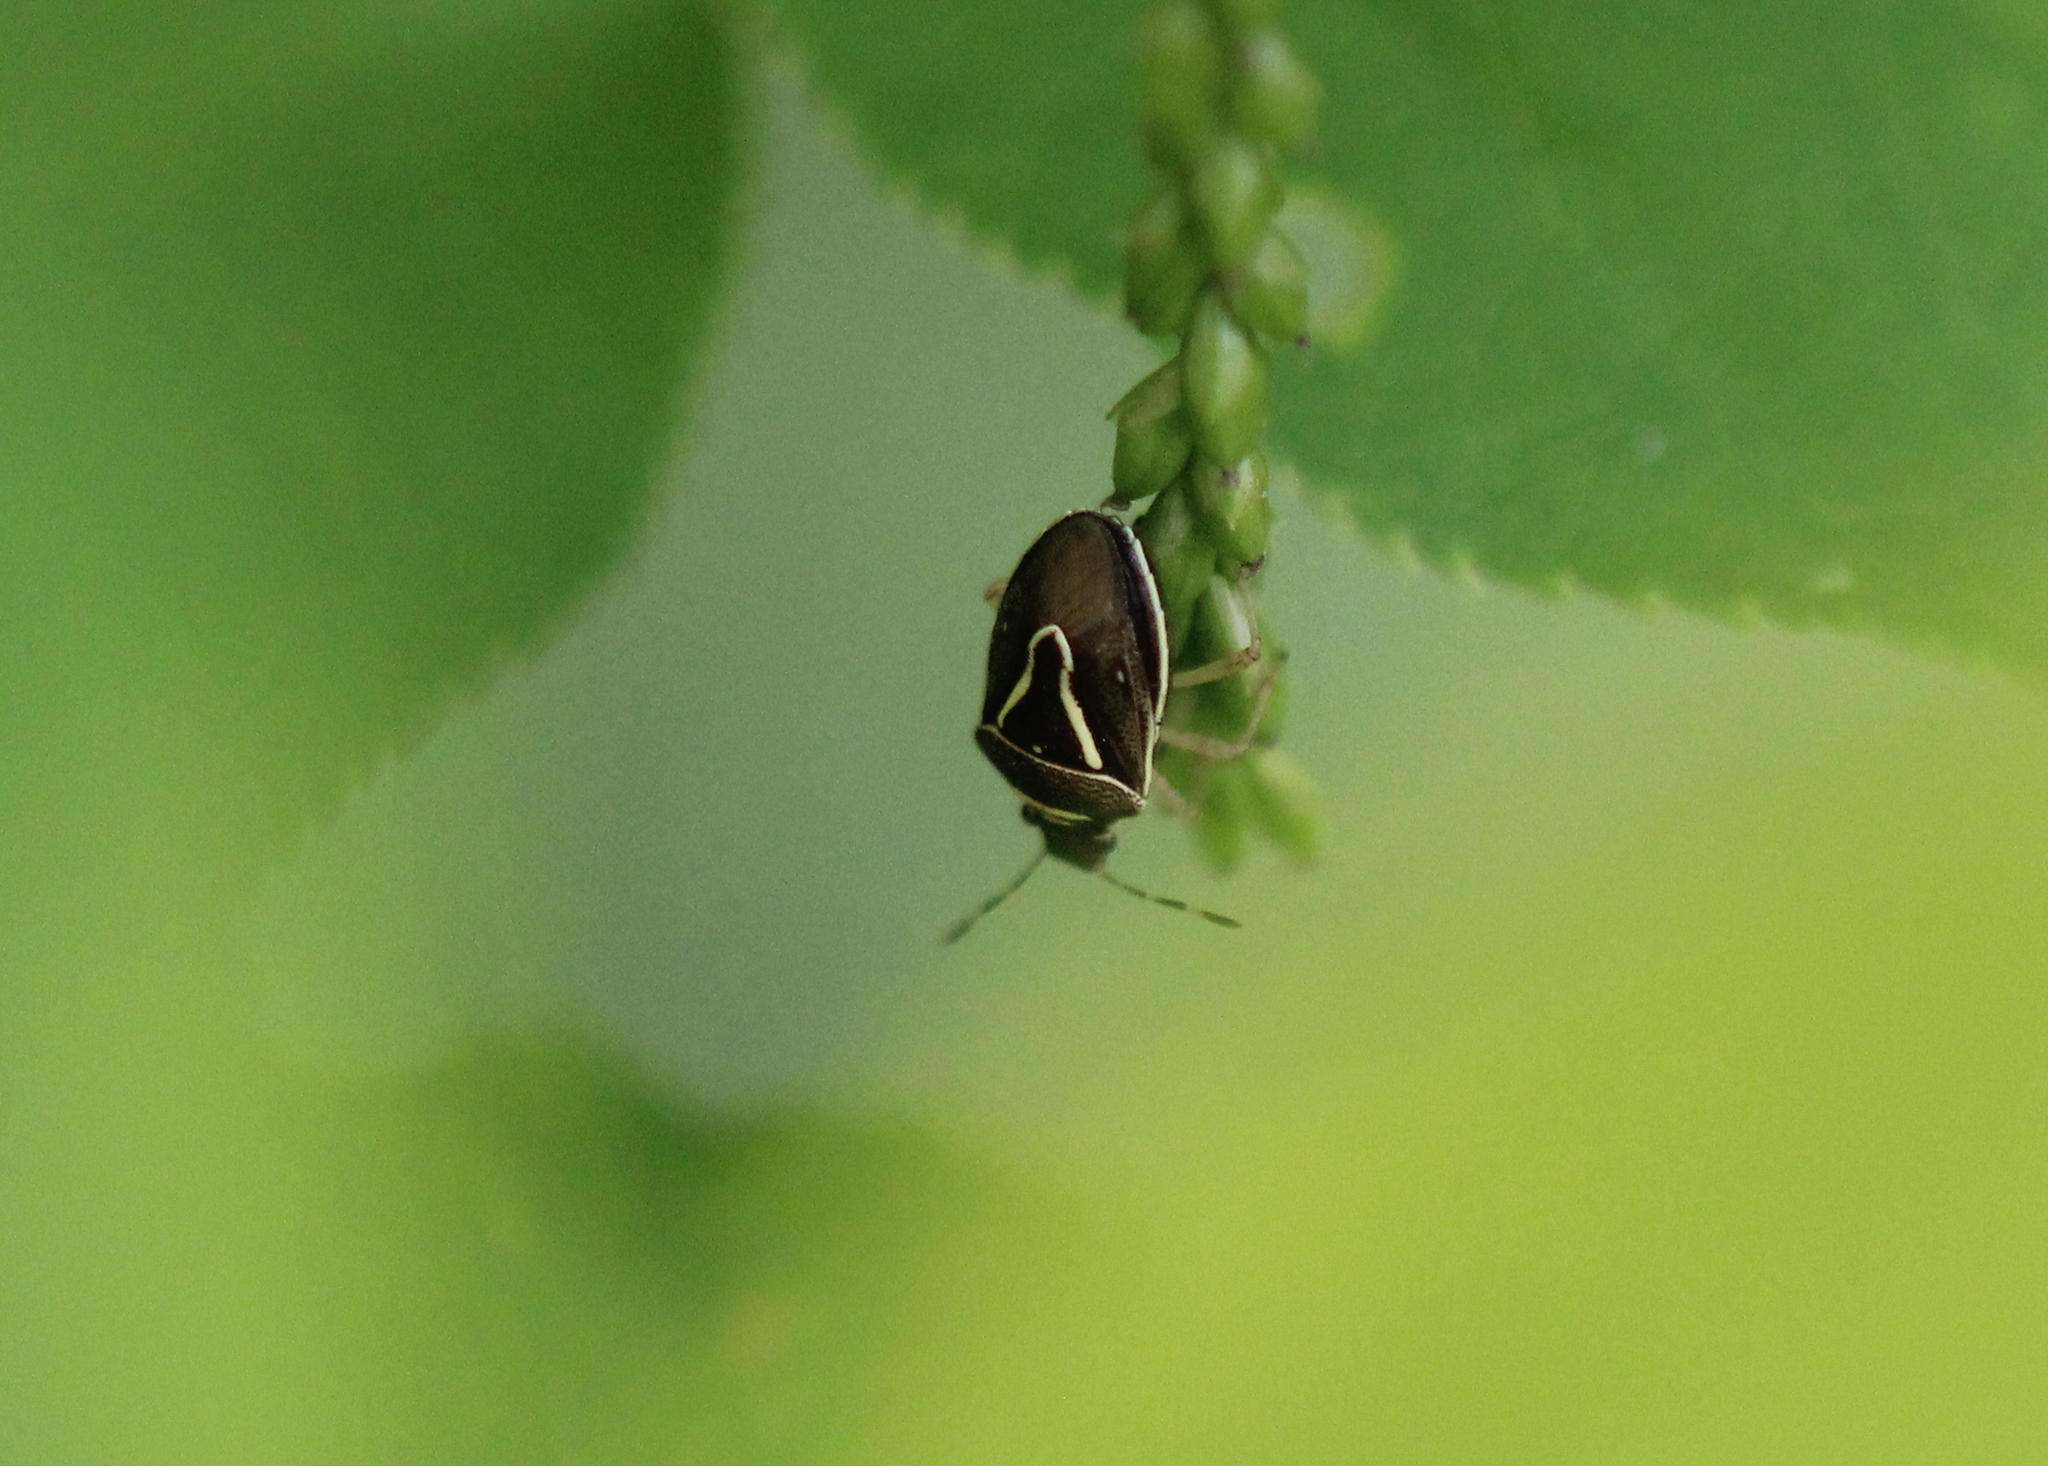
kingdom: Animalia
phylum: Arthropoda
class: Insecta
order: Hemiptera
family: Pentatomidae
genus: Mormidea
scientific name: Mormidea lugens
